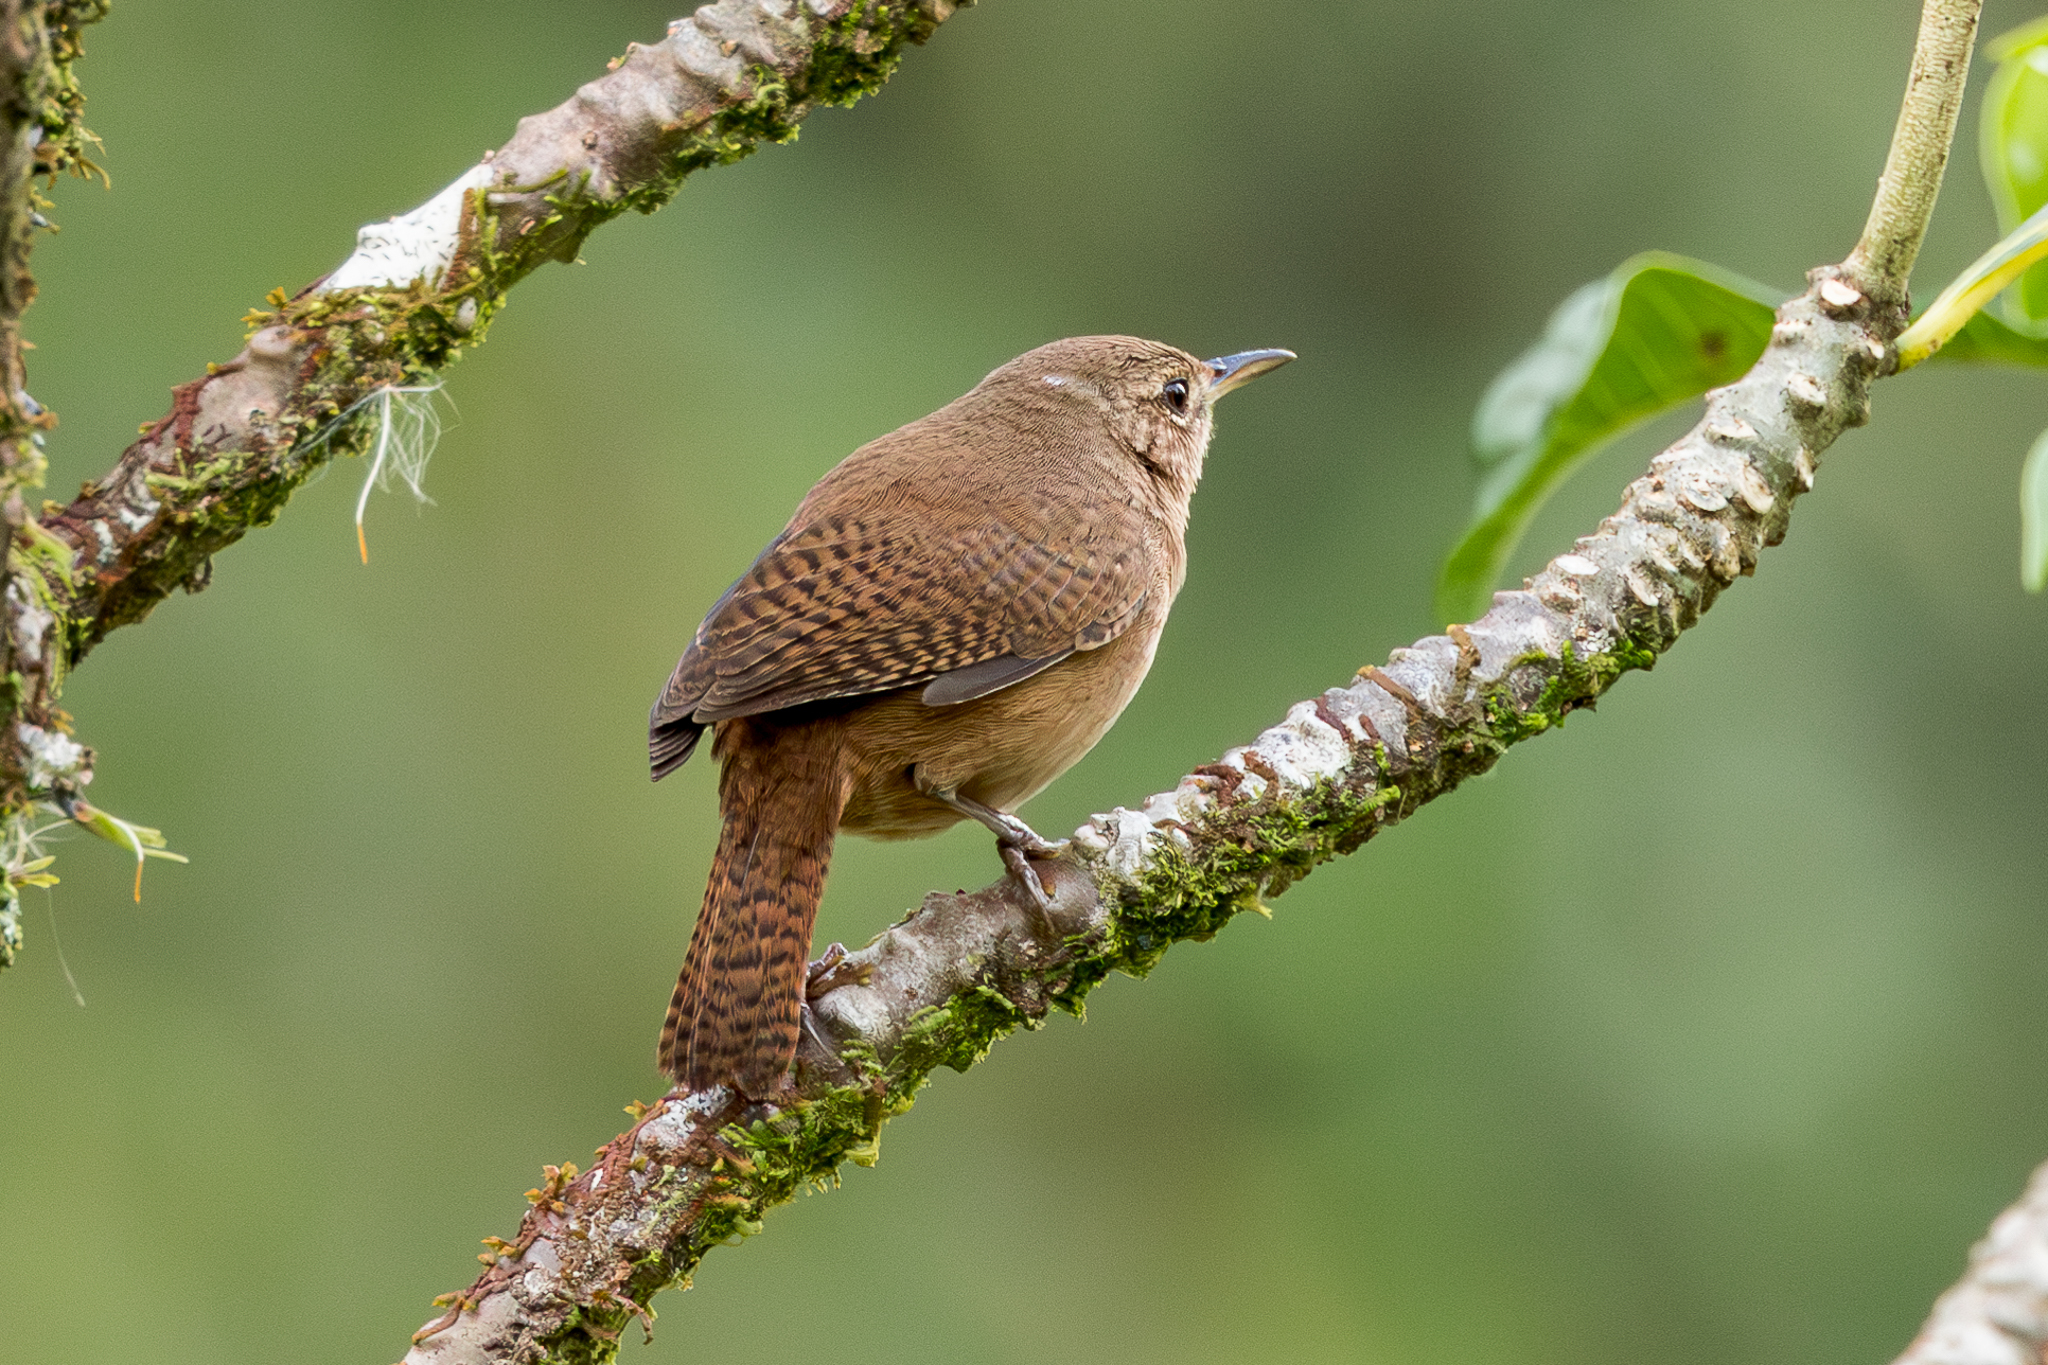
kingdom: Animalia
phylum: Chordata
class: Aves
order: Passeriformes
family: Troglodytidae
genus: Troglodytes
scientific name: Troglodytes aedon
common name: House wren
